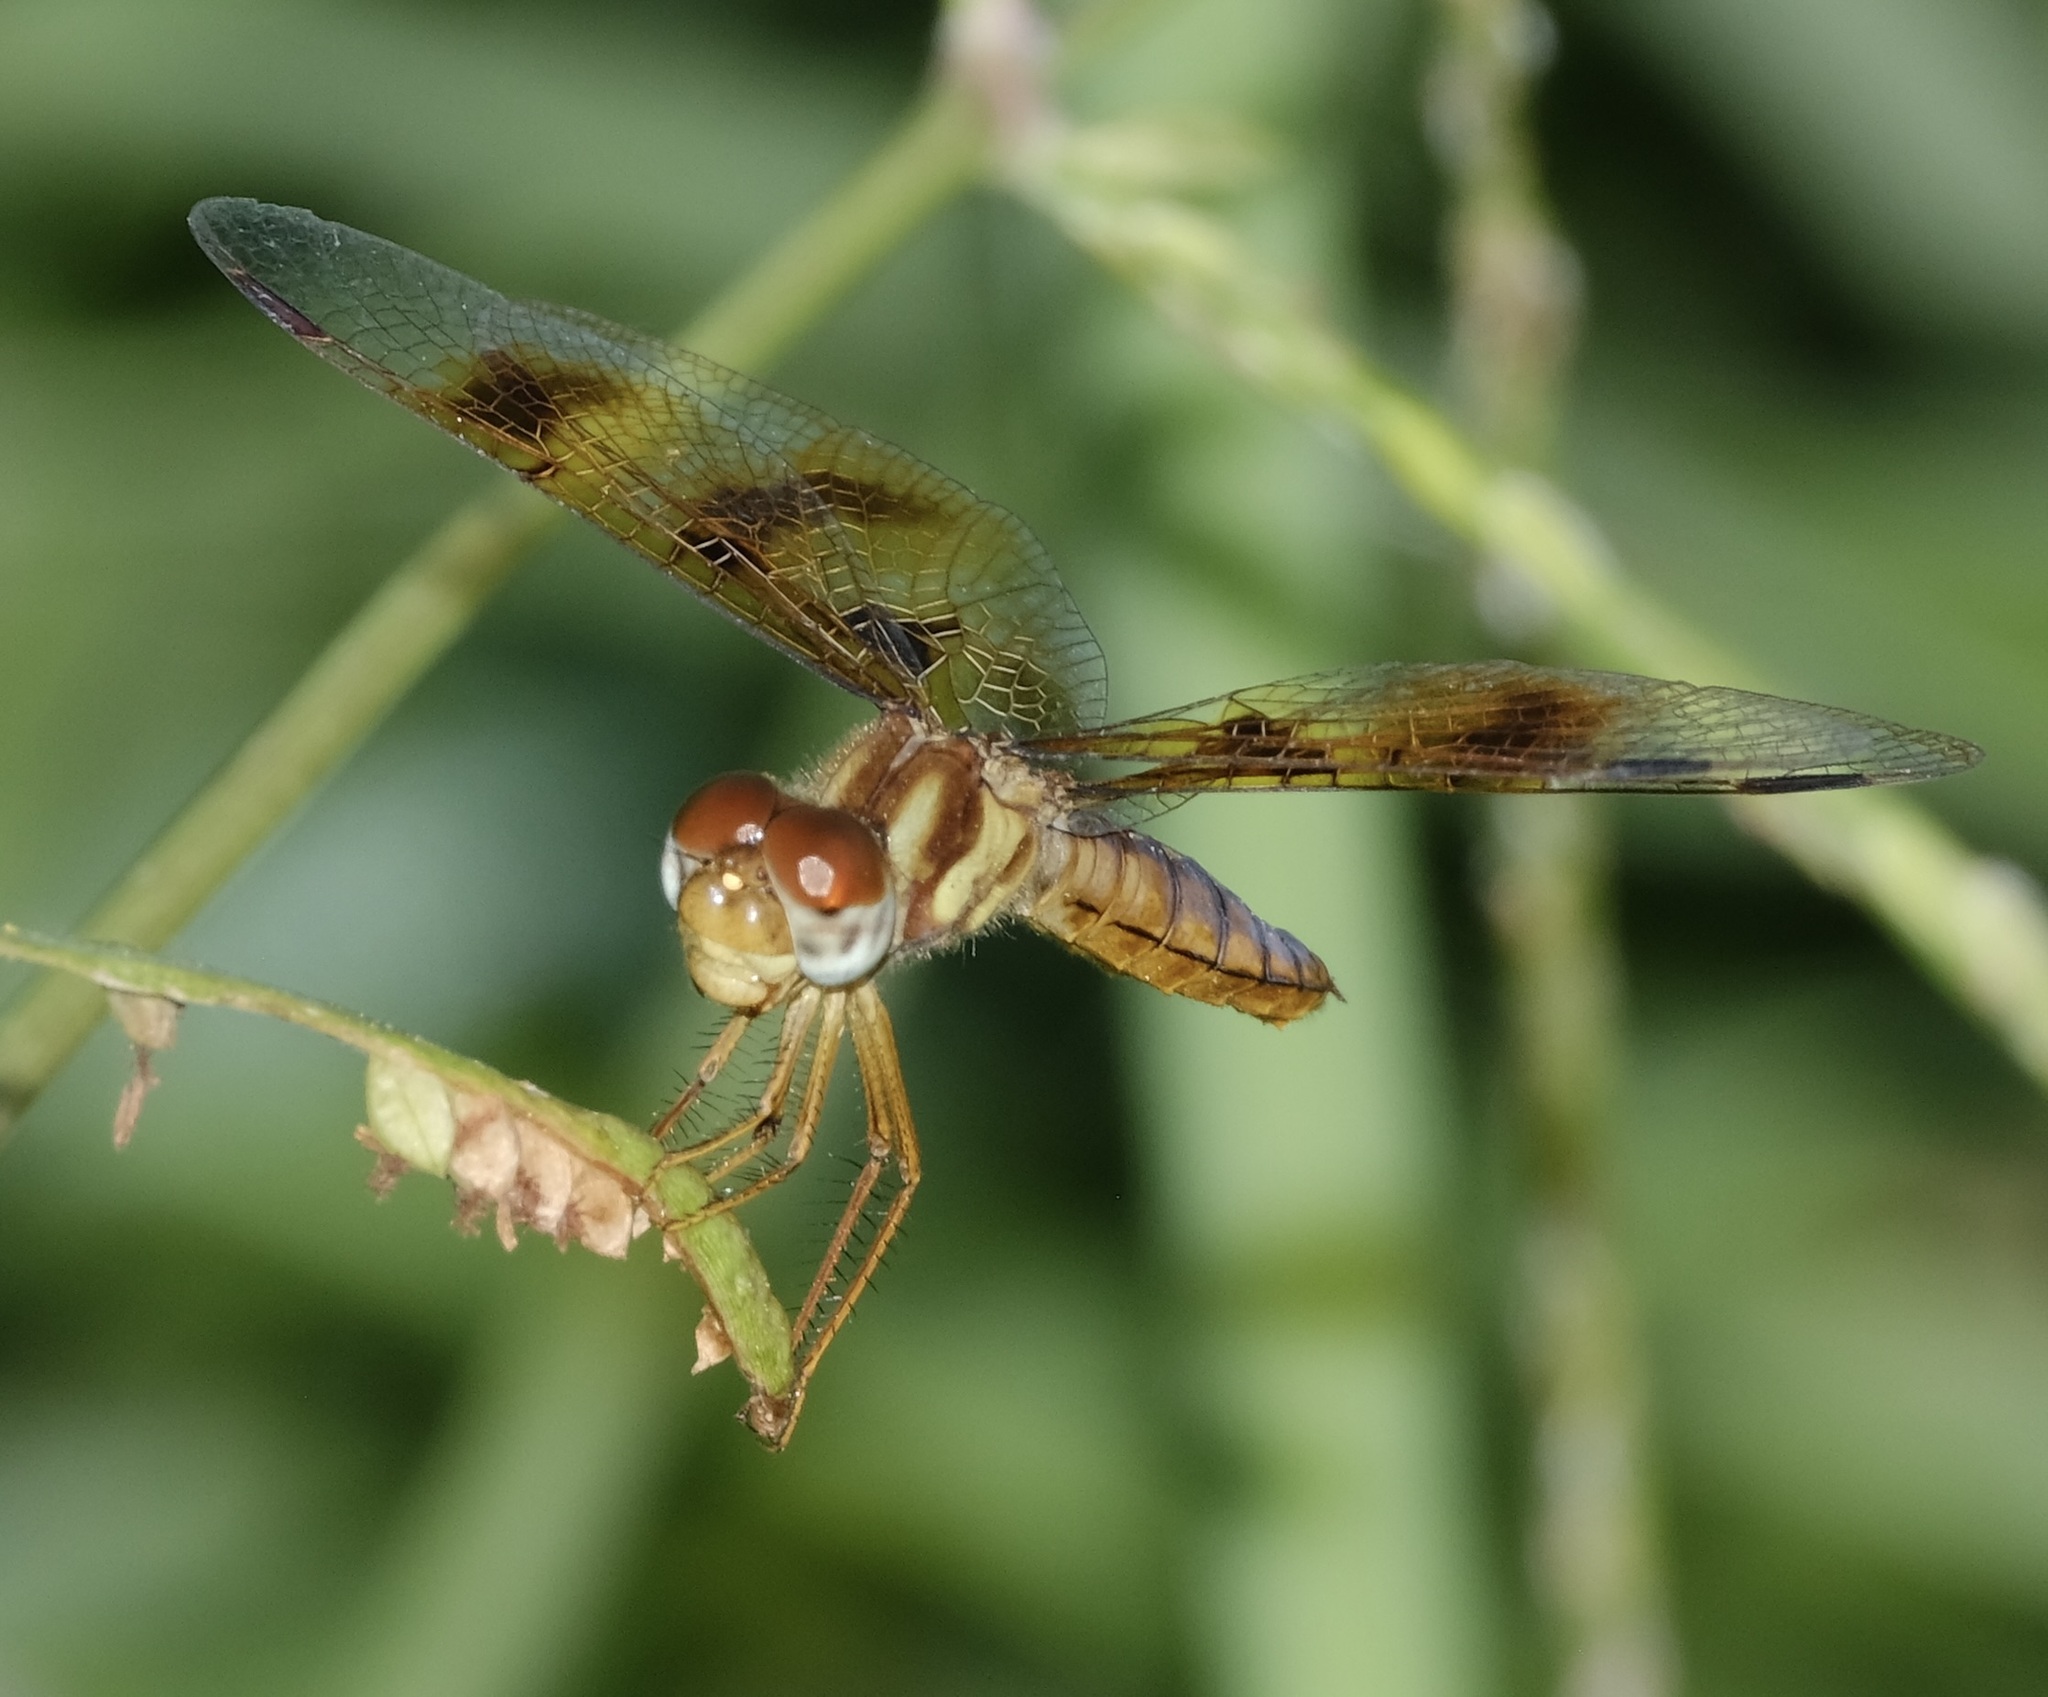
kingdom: Animalia
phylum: Arthropoda
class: Insecta
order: Odonata
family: Libellulidae
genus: Perithemis
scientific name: Perithemis tenera
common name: Eastern amberwing
